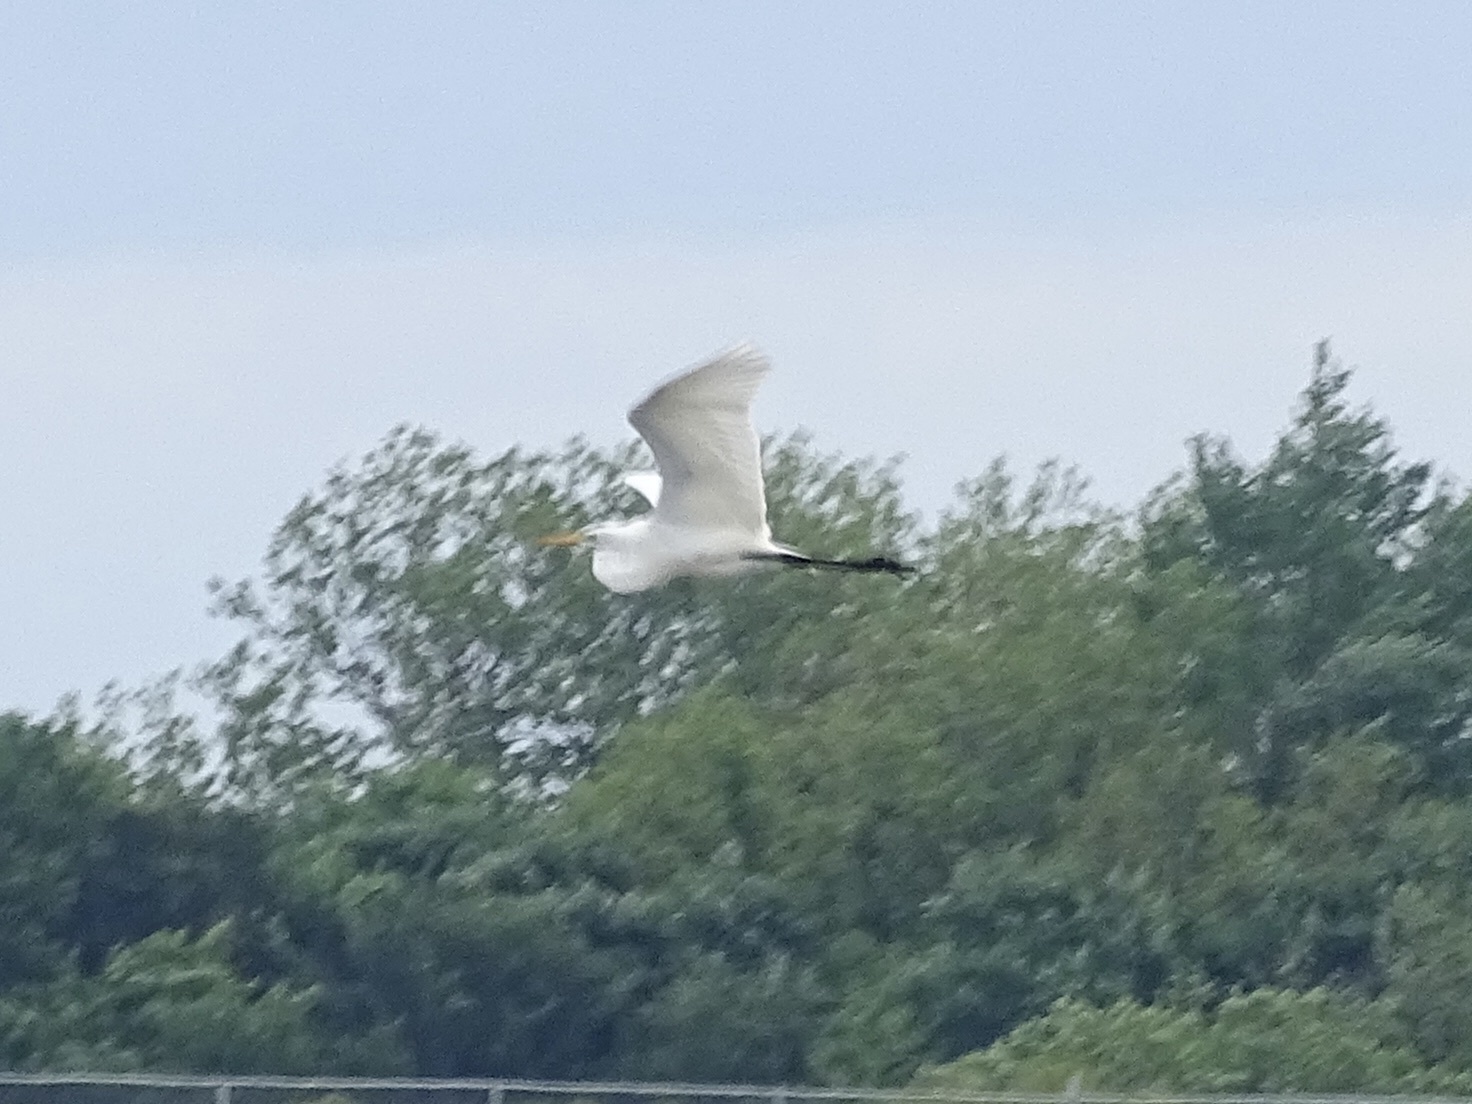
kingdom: Animalia
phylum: Chordata
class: Aves
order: Pelecaniformes
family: Ardeidae
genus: Ardea
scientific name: Ardea alba
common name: Great egret
